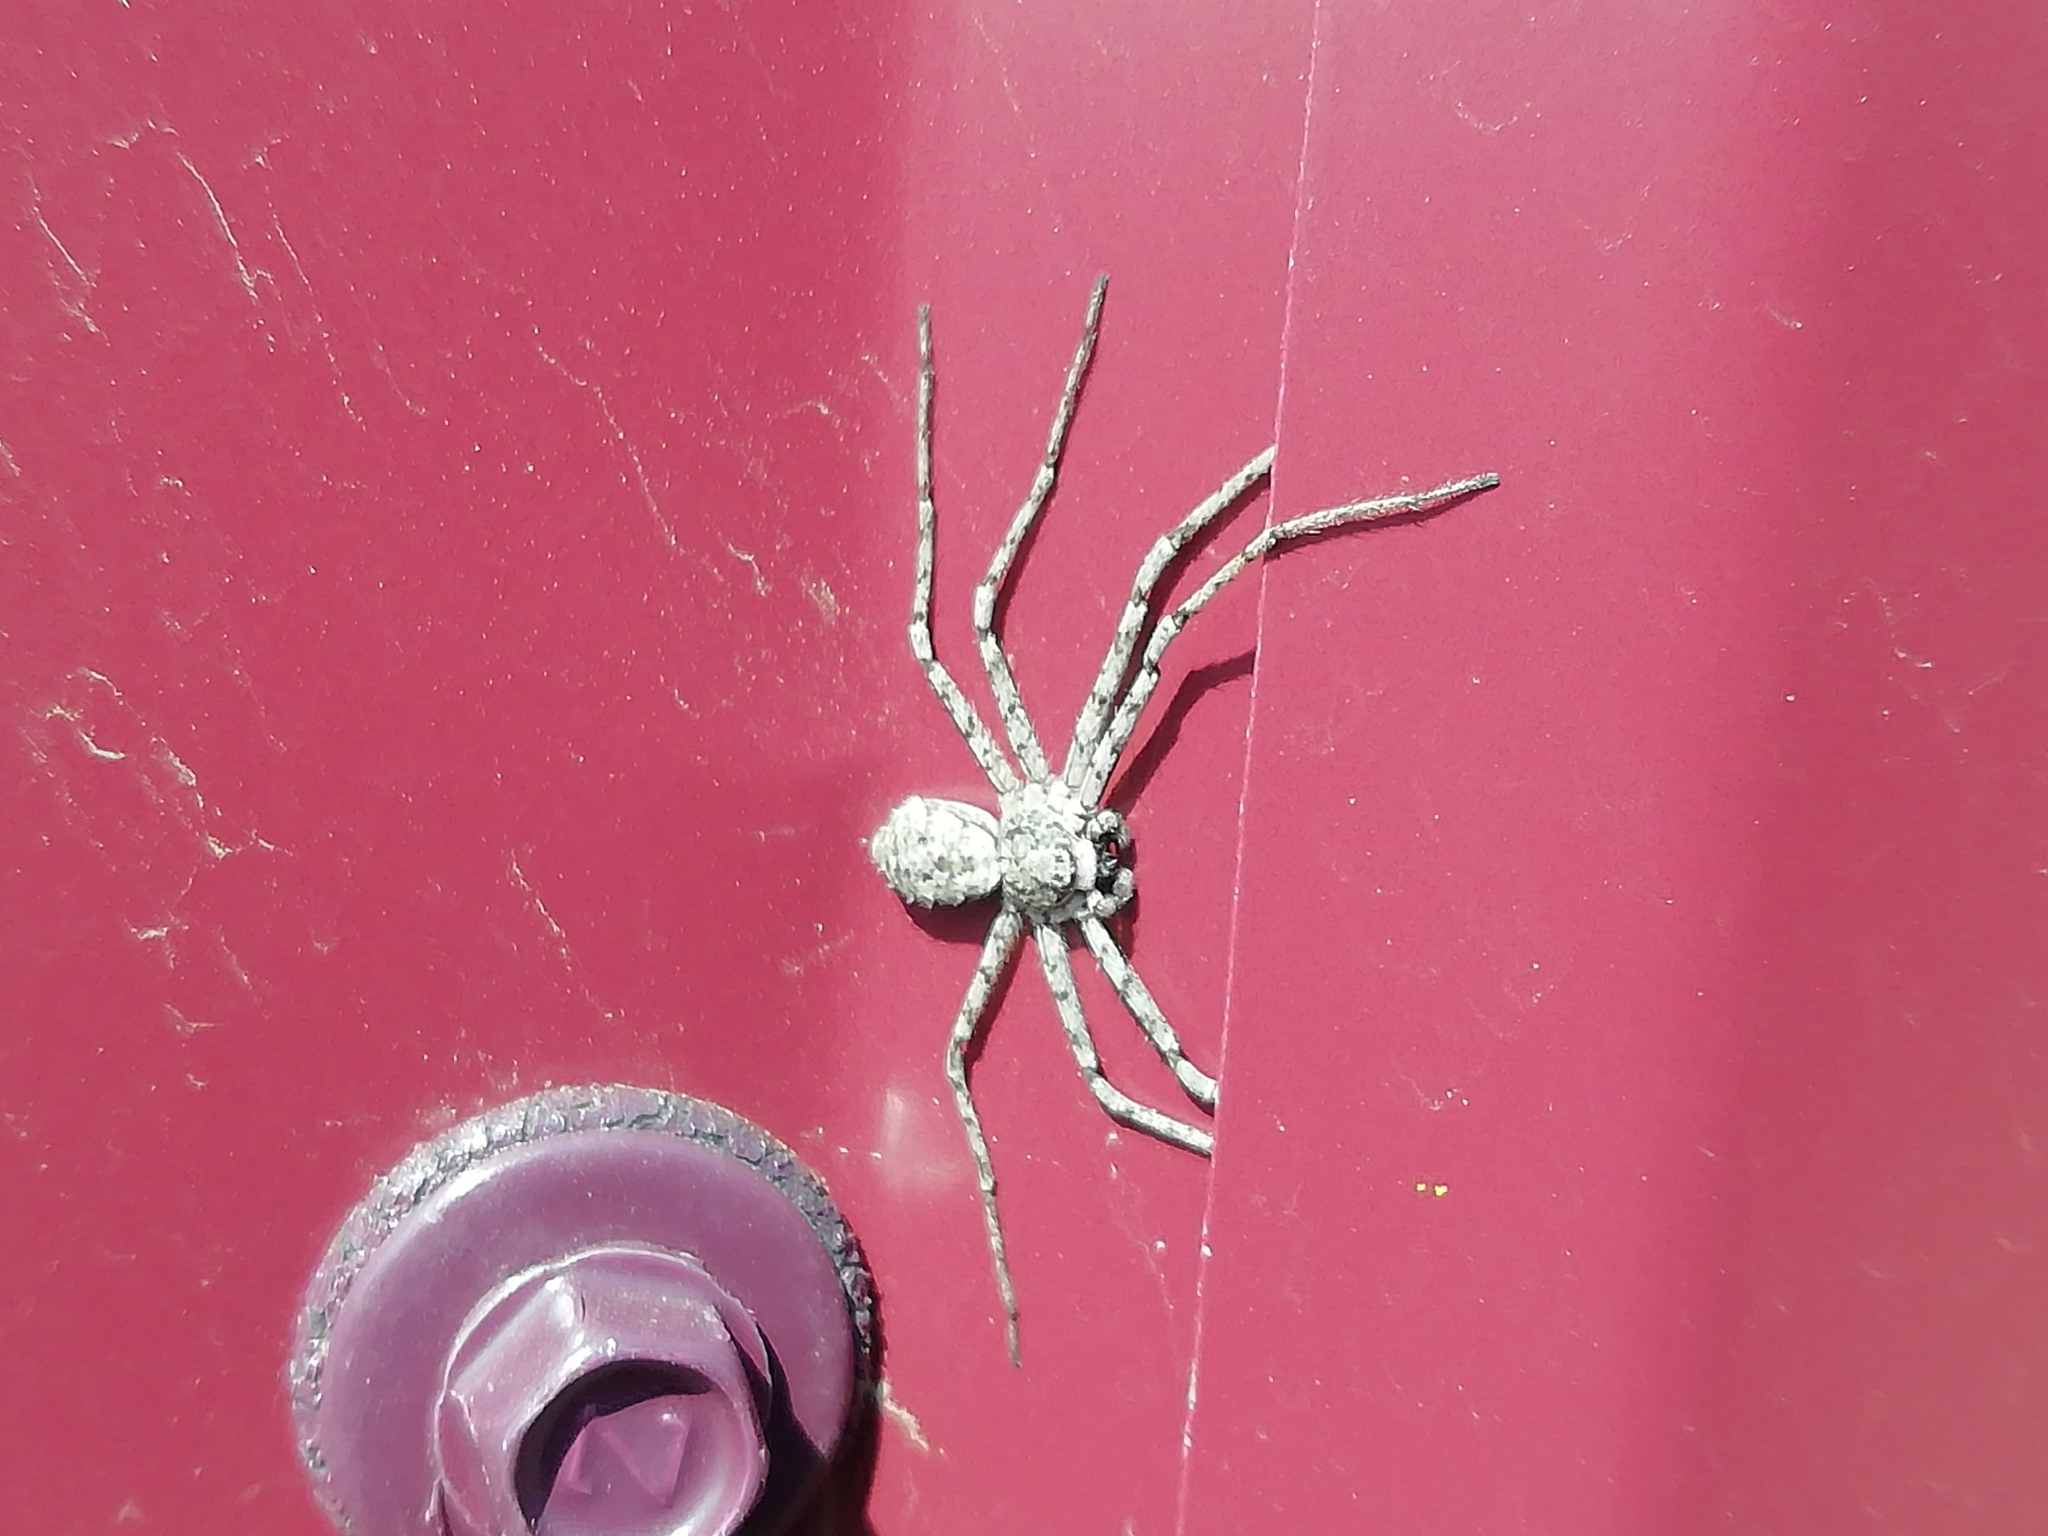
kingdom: Animalia
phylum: Arthropoda
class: Arachnida
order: Araneae
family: Philodromidae
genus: Philodromus
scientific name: Philodromus margaritatus
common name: Lichen running-spider
